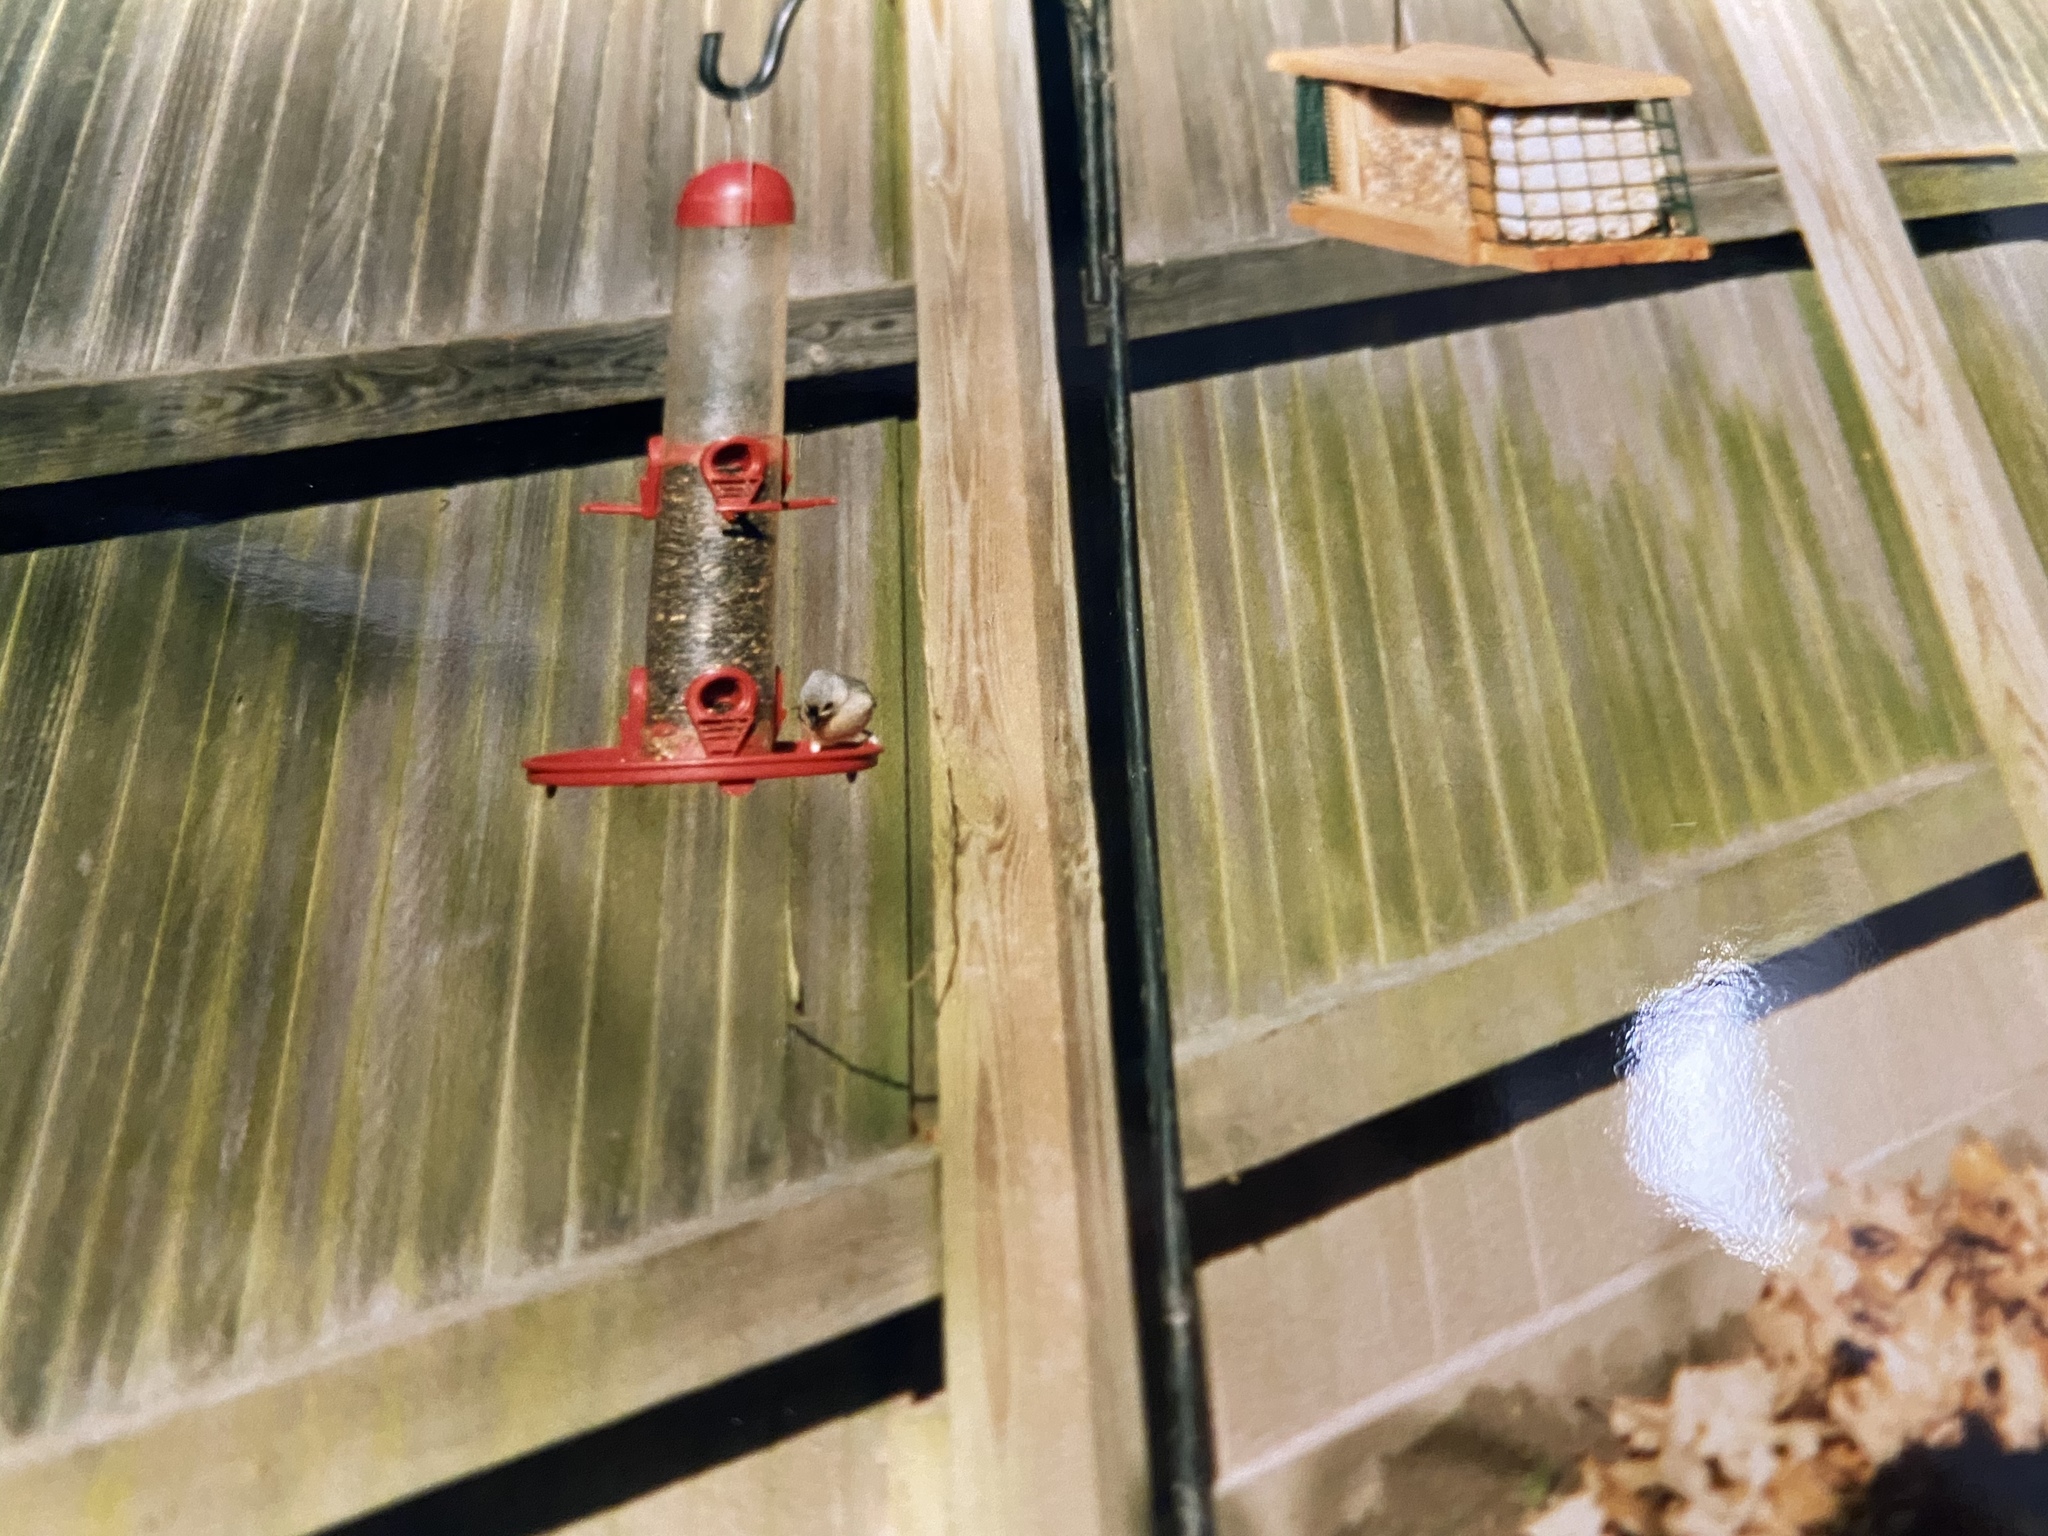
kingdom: Animalia
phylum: Chordata
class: Aves
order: Passeriformes
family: Paridae
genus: Baeolophus
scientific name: Baeolophus bicolor
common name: Tufted titmouse
